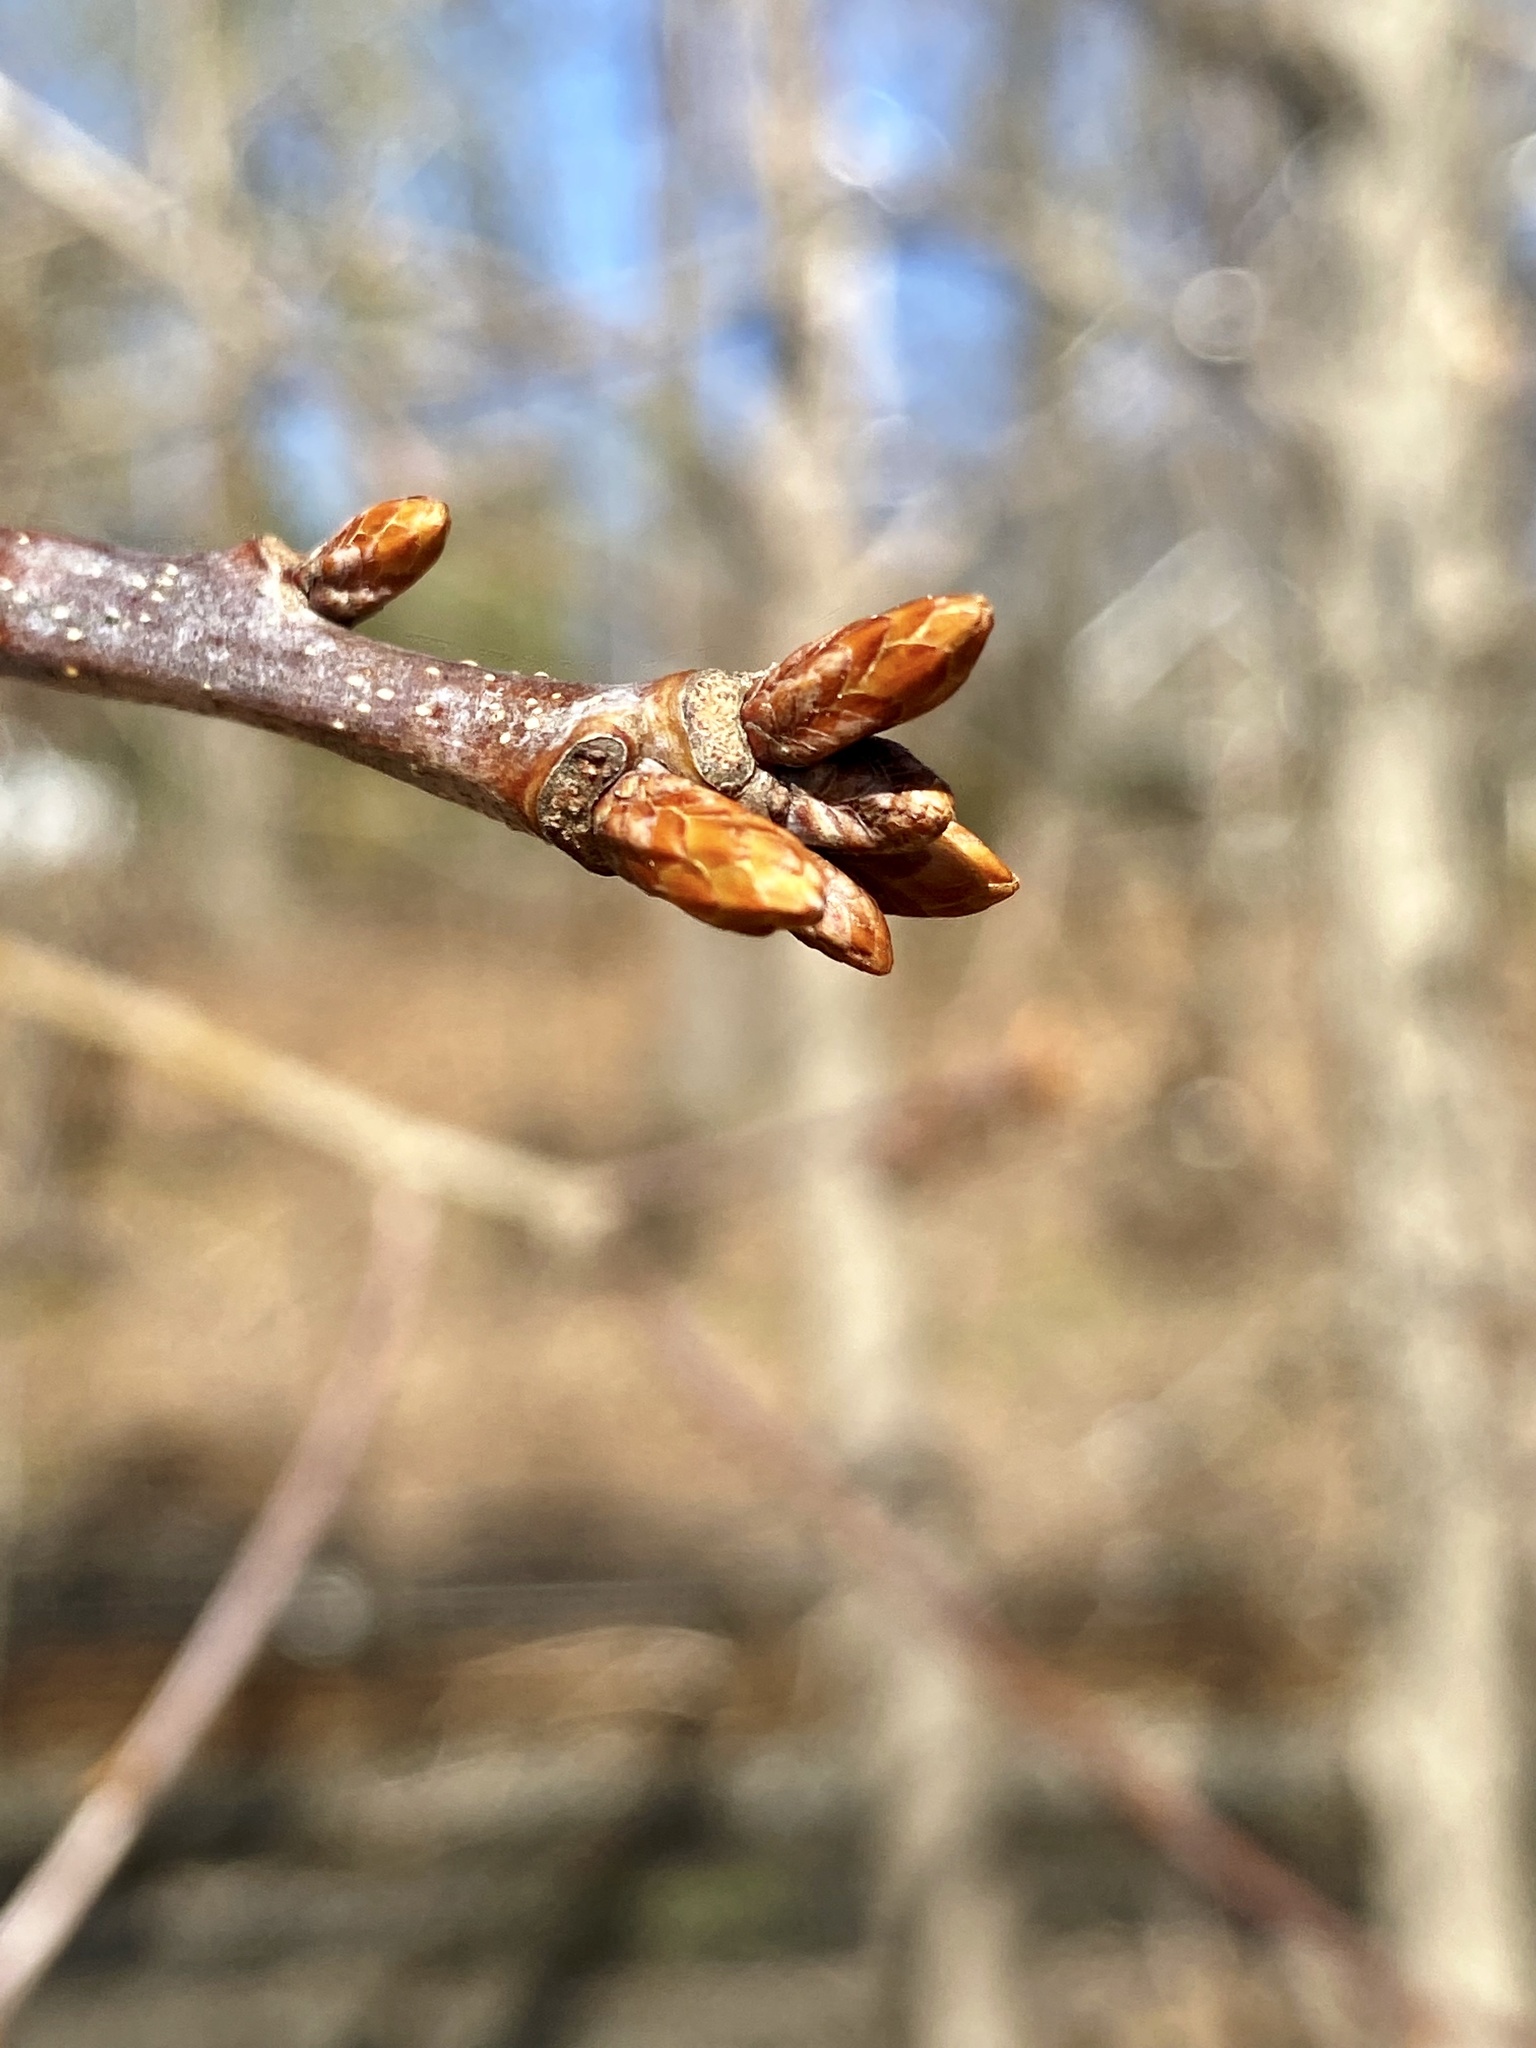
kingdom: Plantae
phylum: Tracheophyta
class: Magnoliopsida
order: Fagales
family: Fagaceae
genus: Quercus
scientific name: Quercus alba
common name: White oak
